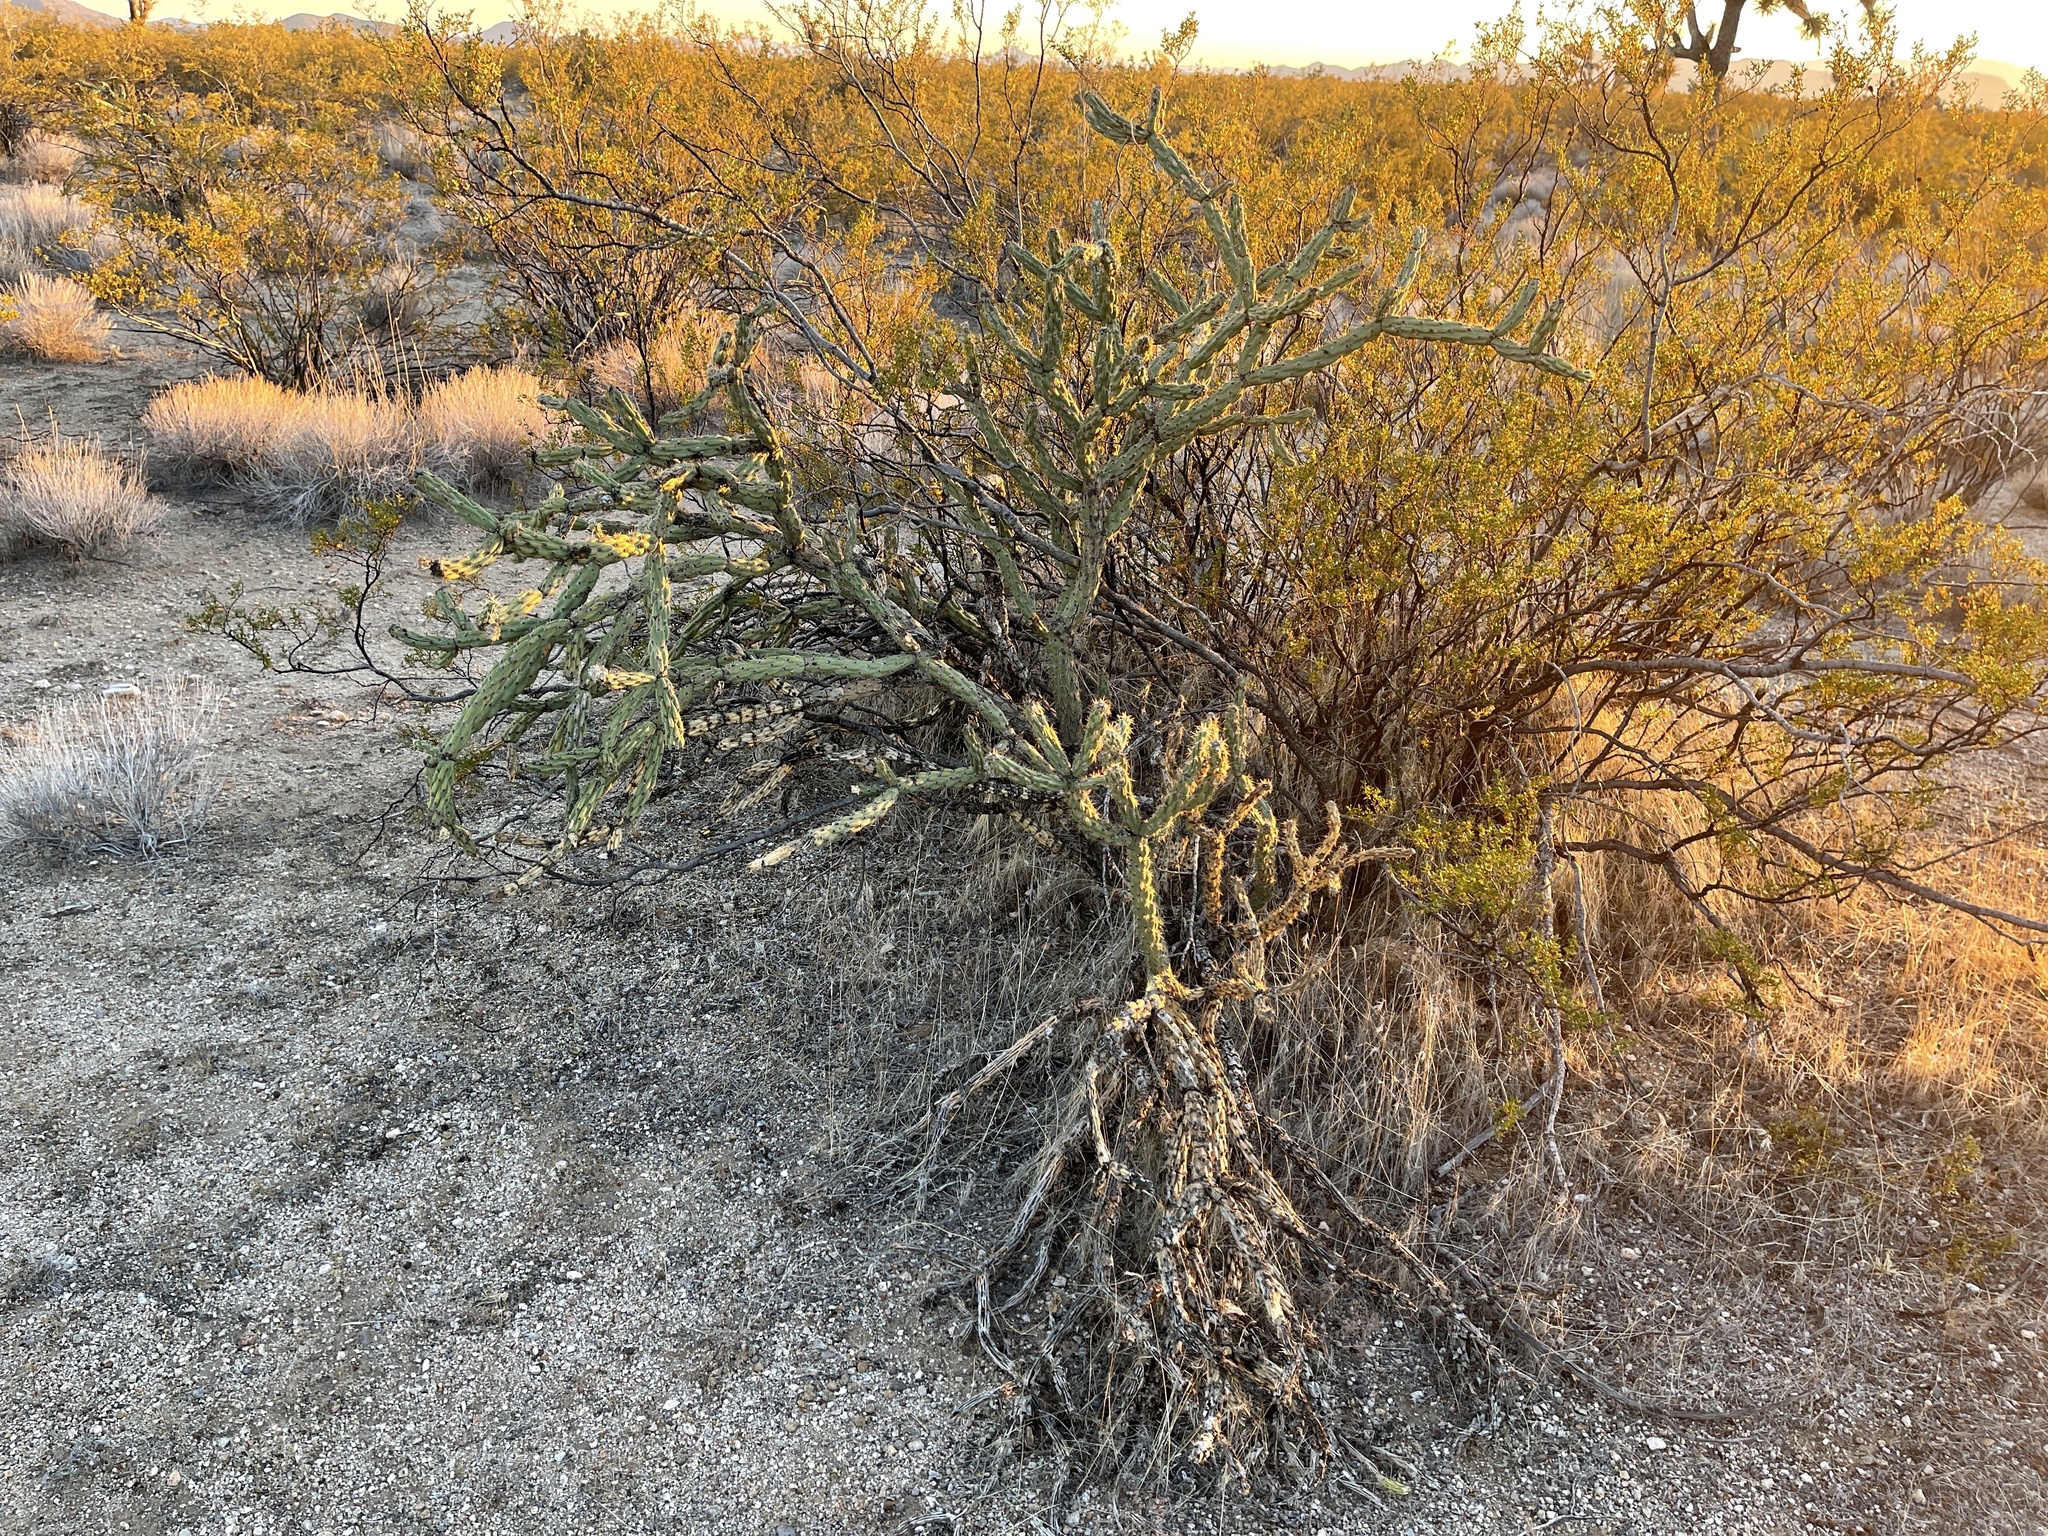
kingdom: Plantae
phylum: Tracheophyta
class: Magnoliopsida
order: Caryophyllales
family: Cactaceae
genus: Cylindropuntia
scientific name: Cylindropuntia acanthocarpa
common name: Buckhorn cholla
